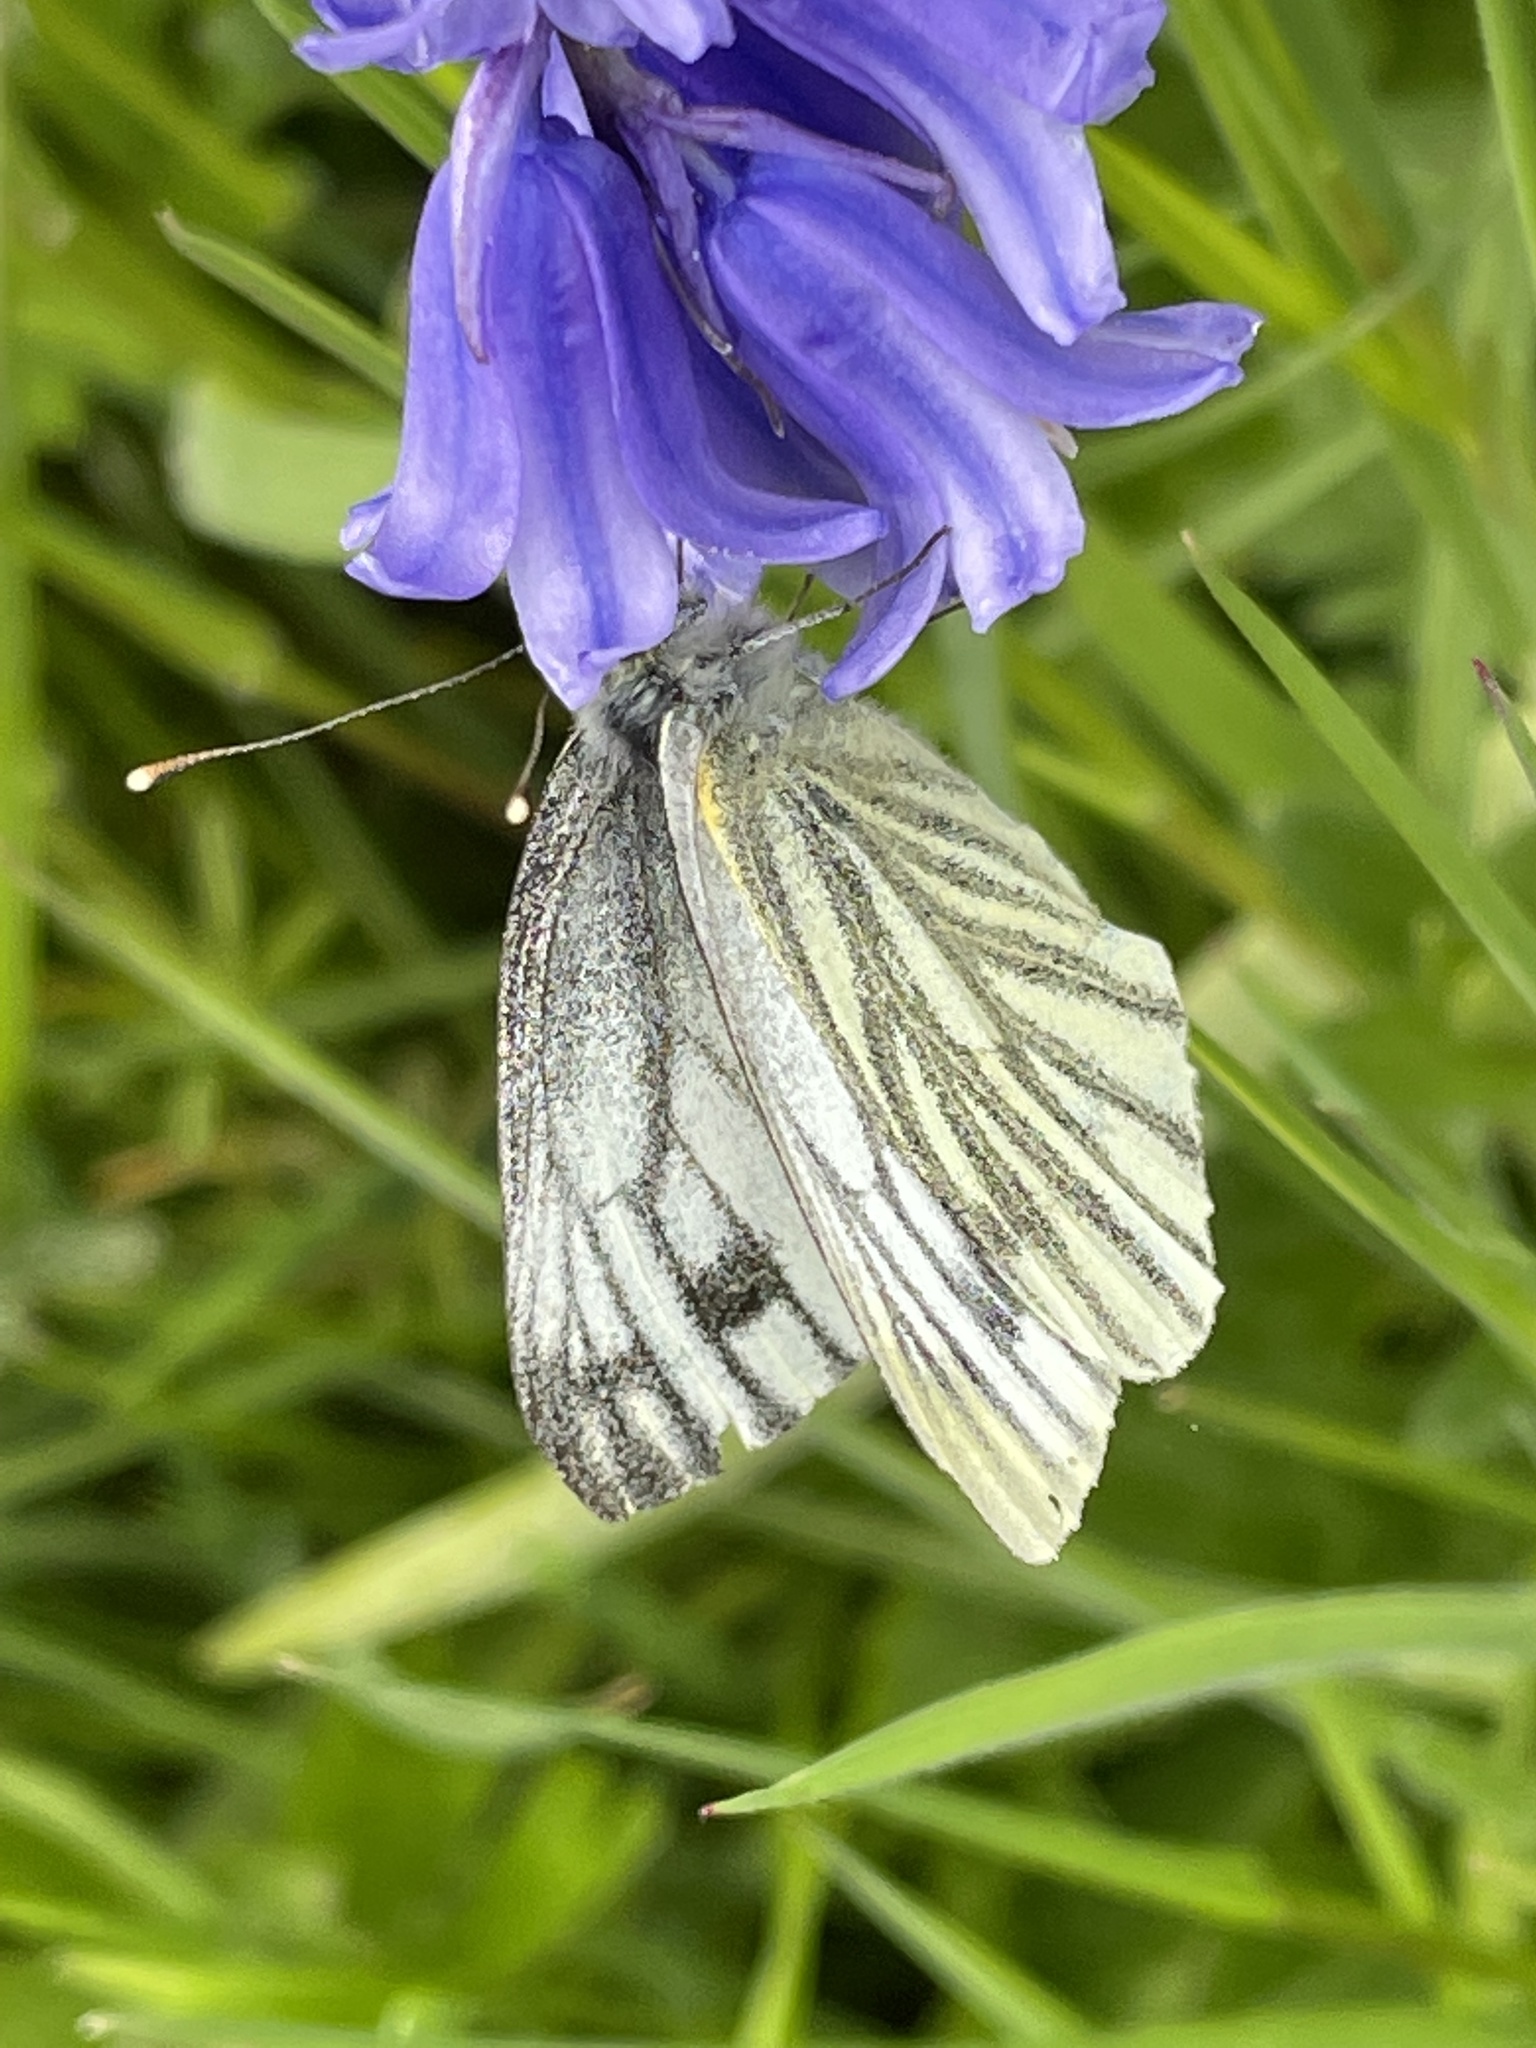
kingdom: Animalia
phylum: Arthropoda
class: Insecta
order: Lepidoptera
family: Pieridae
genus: Pieris
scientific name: Pieris napi
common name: Green-veined white
